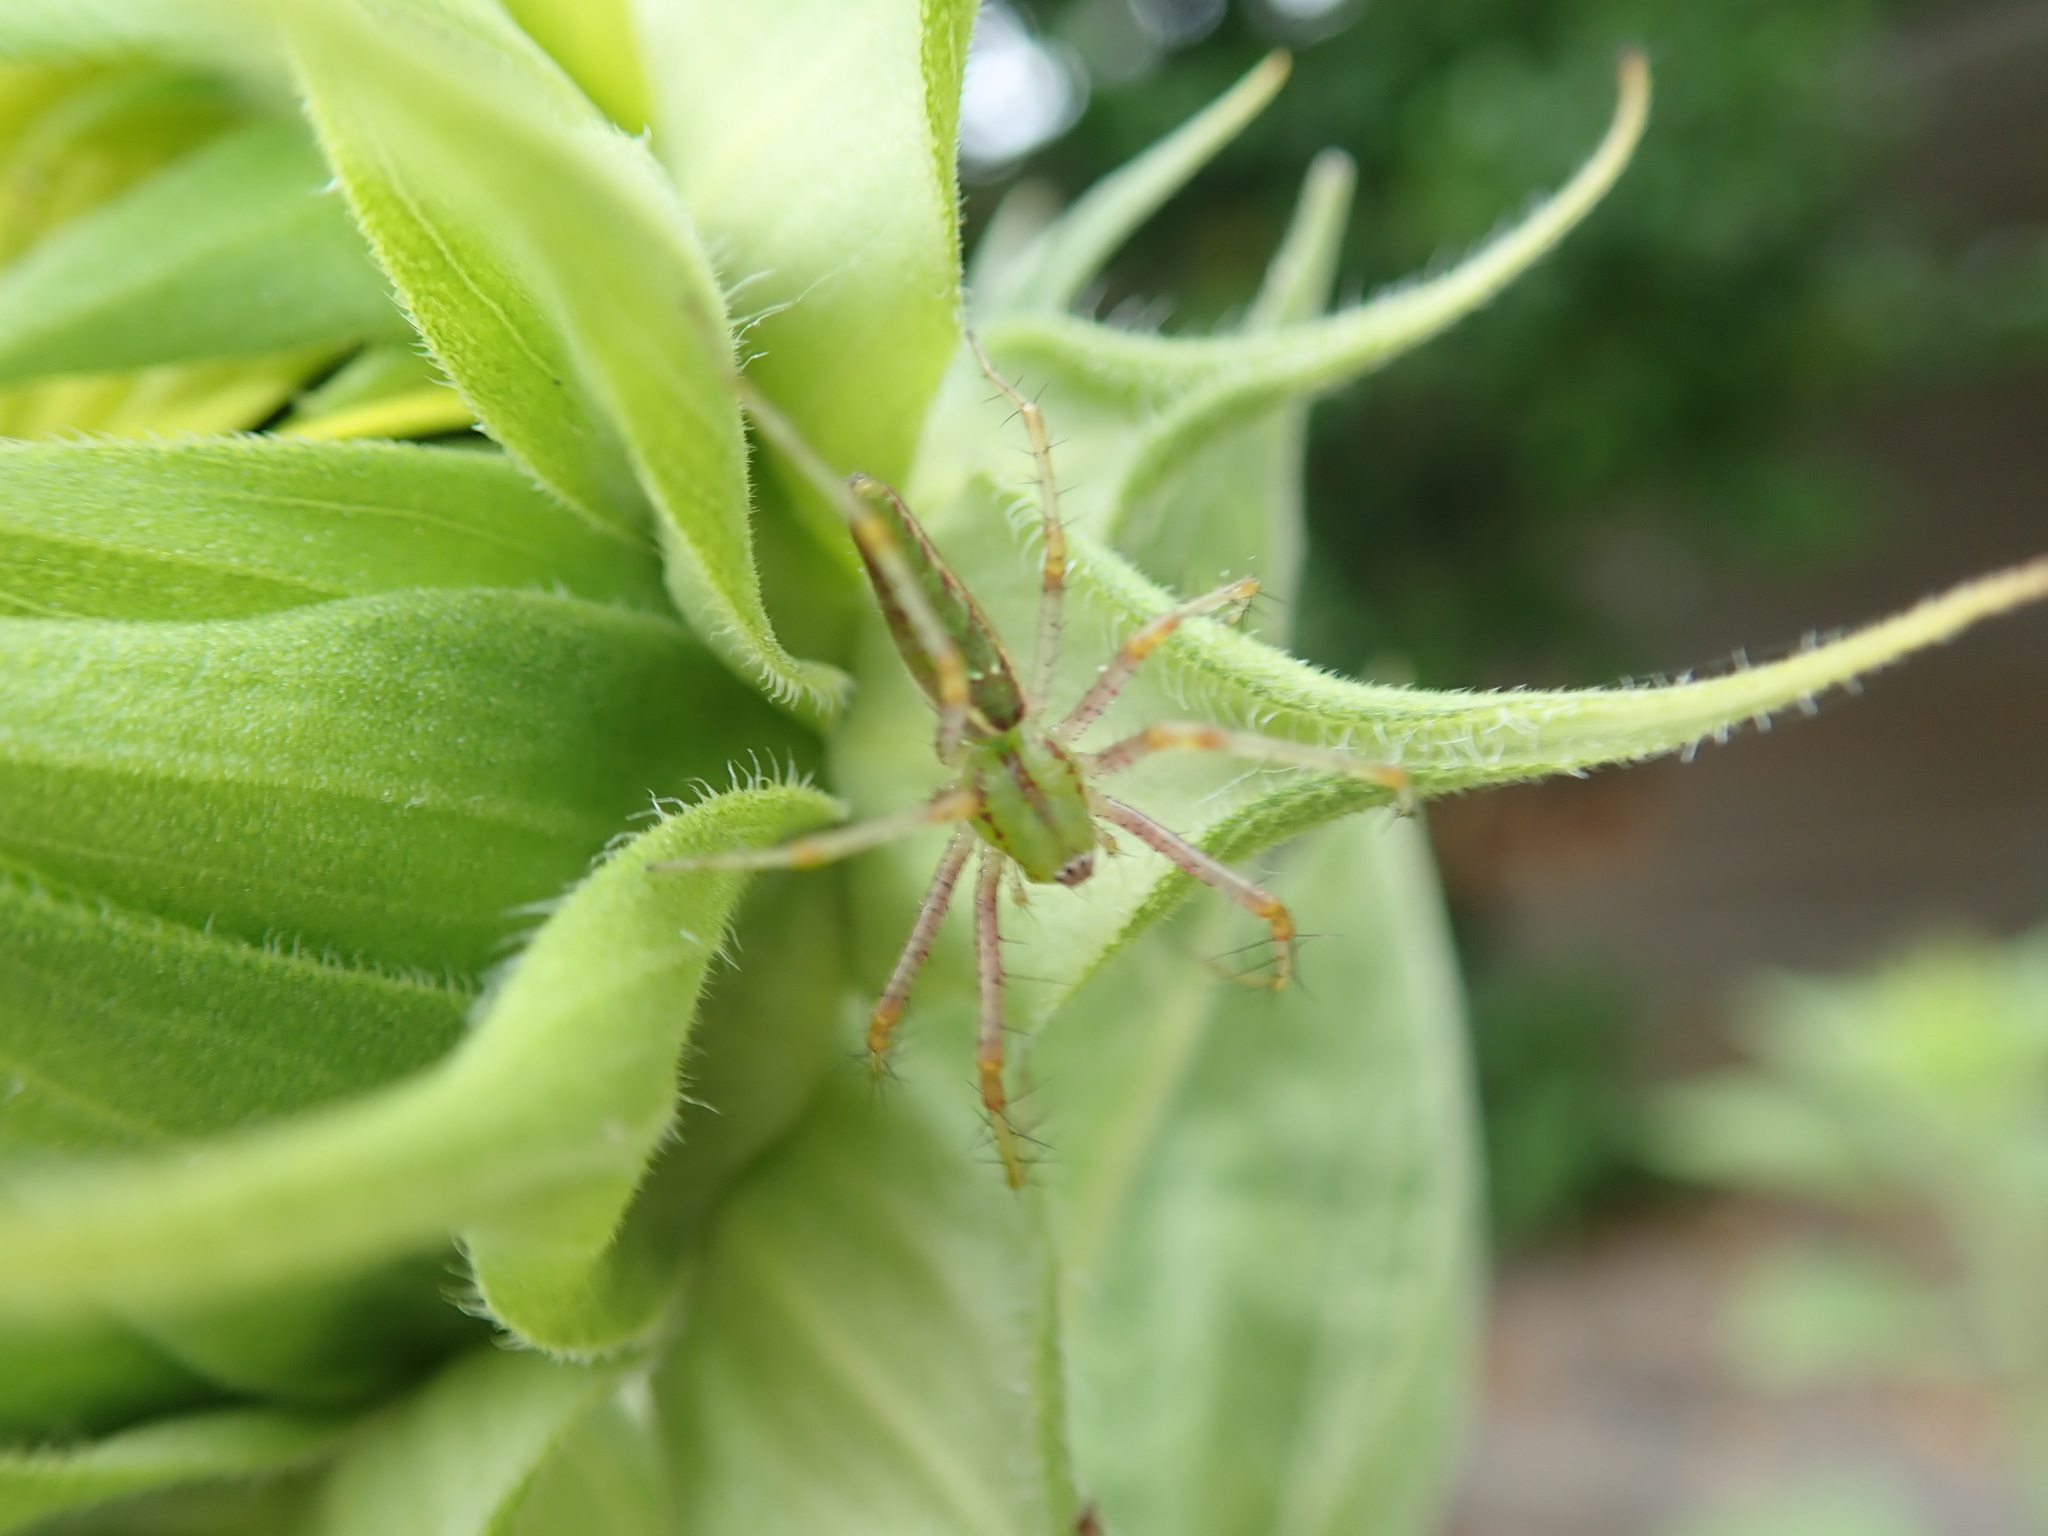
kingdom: Animalia
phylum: Arthropoda
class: Arachnida
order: Araneae
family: Oxyopidae
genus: Peucetia
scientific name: Peucetia viridans
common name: Lynx spiders
